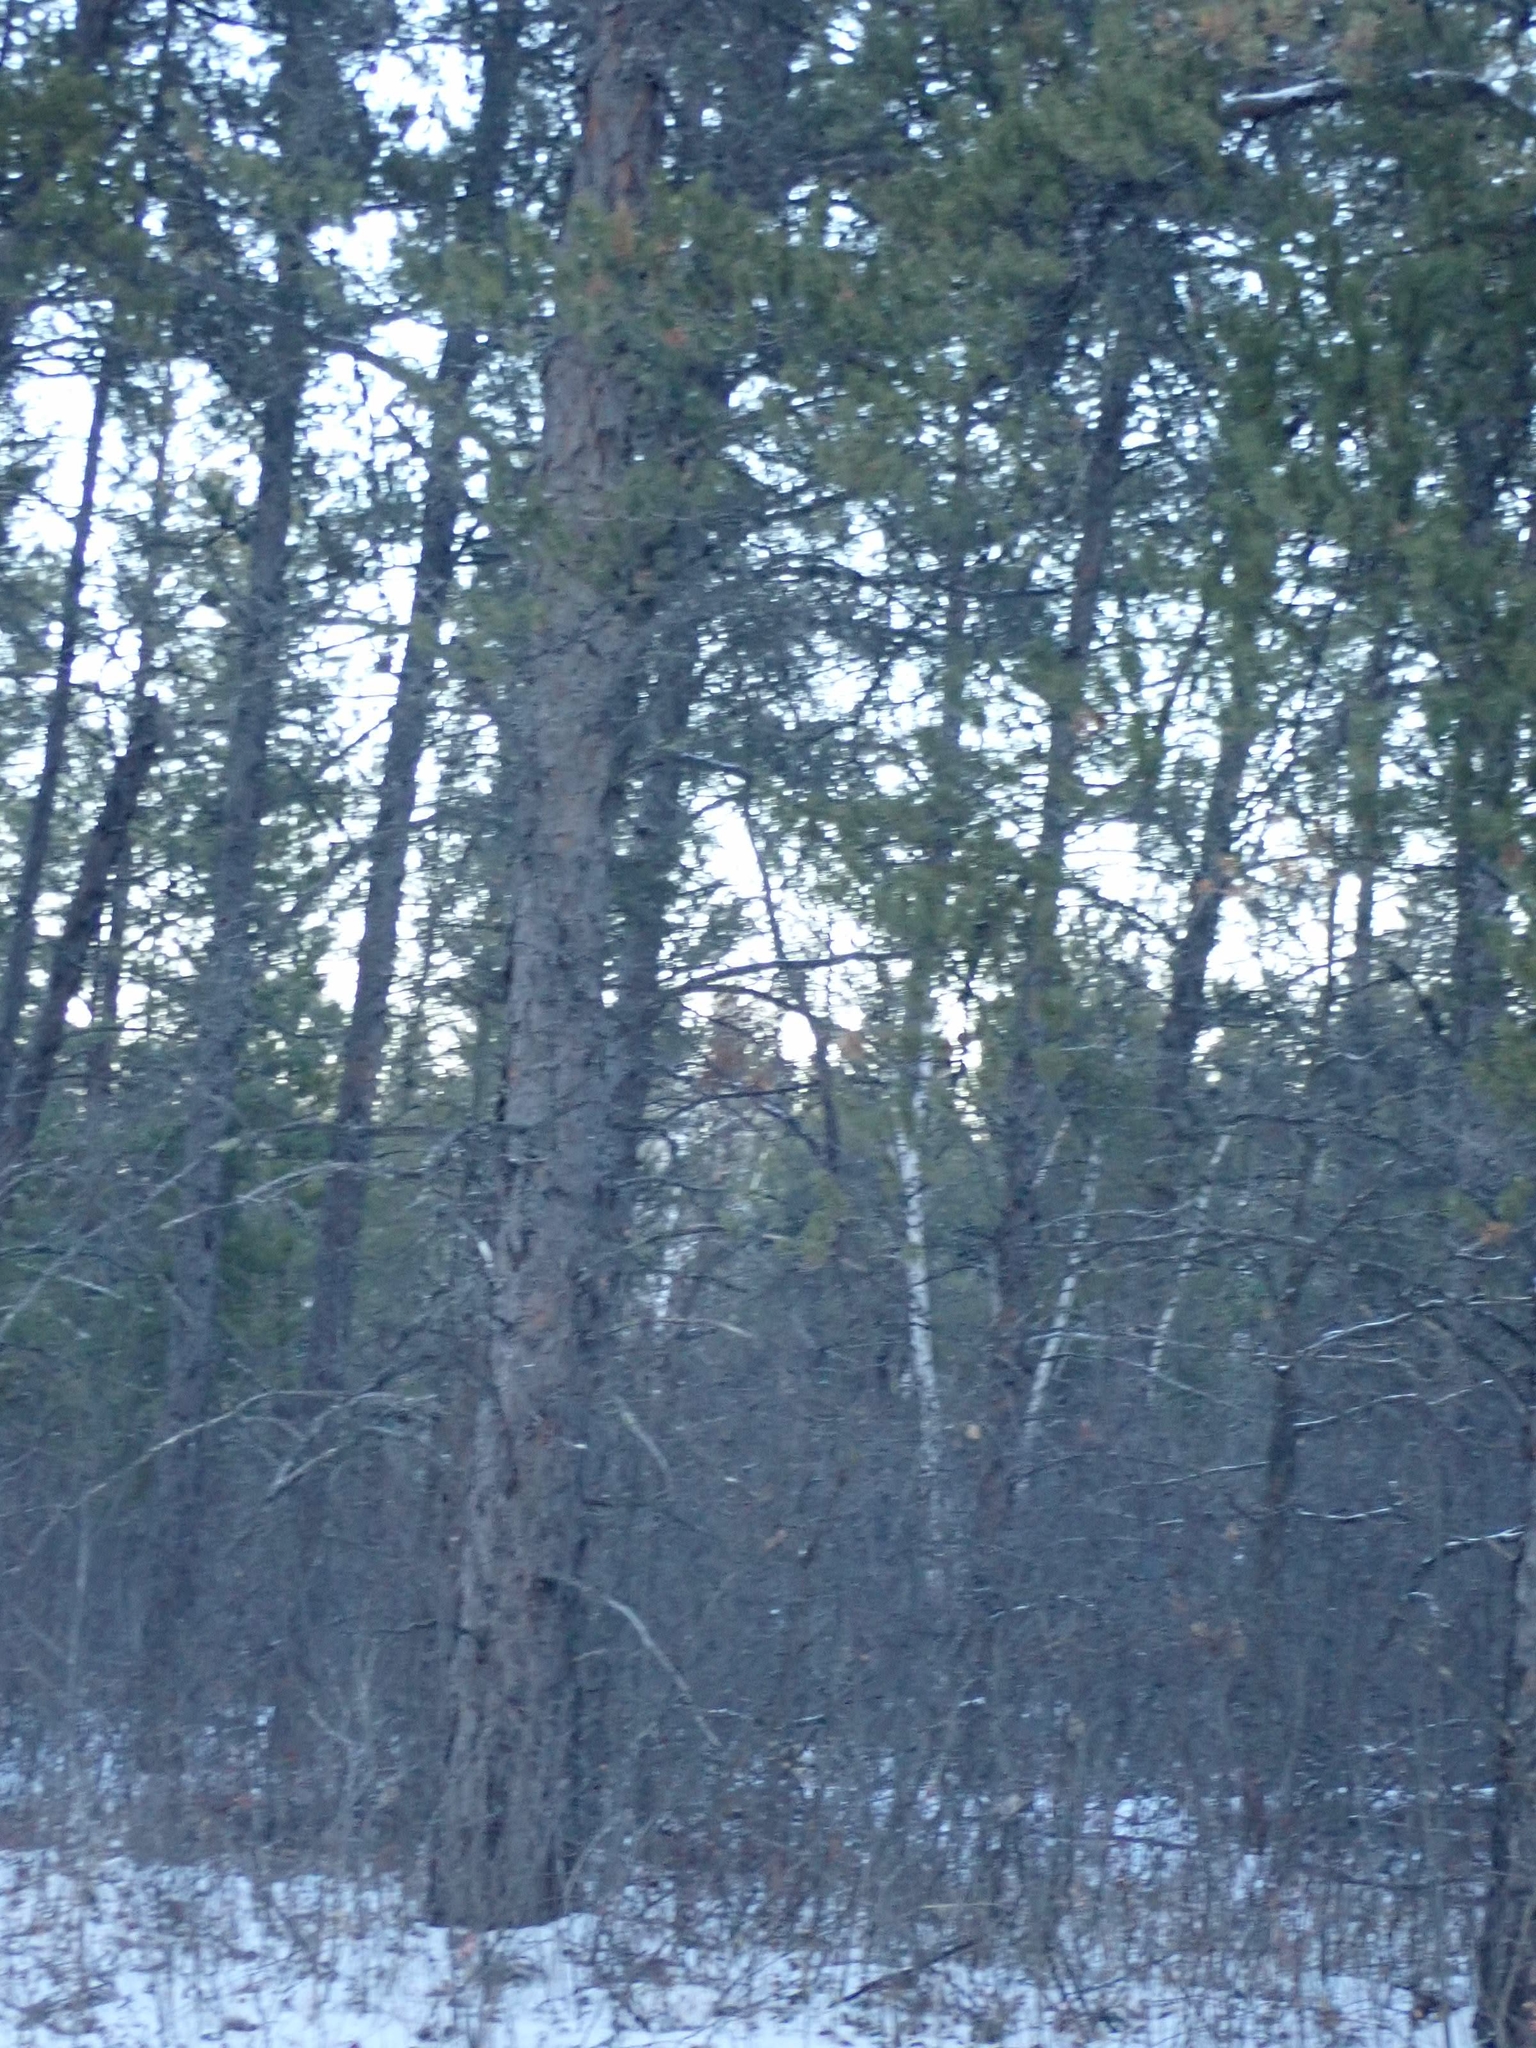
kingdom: Plantae
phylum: Tracheophyta
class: Pinopsida
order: Pinales
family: Pinaceae
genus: Pinus
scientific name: Pinus banksiana
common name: Jack pine
